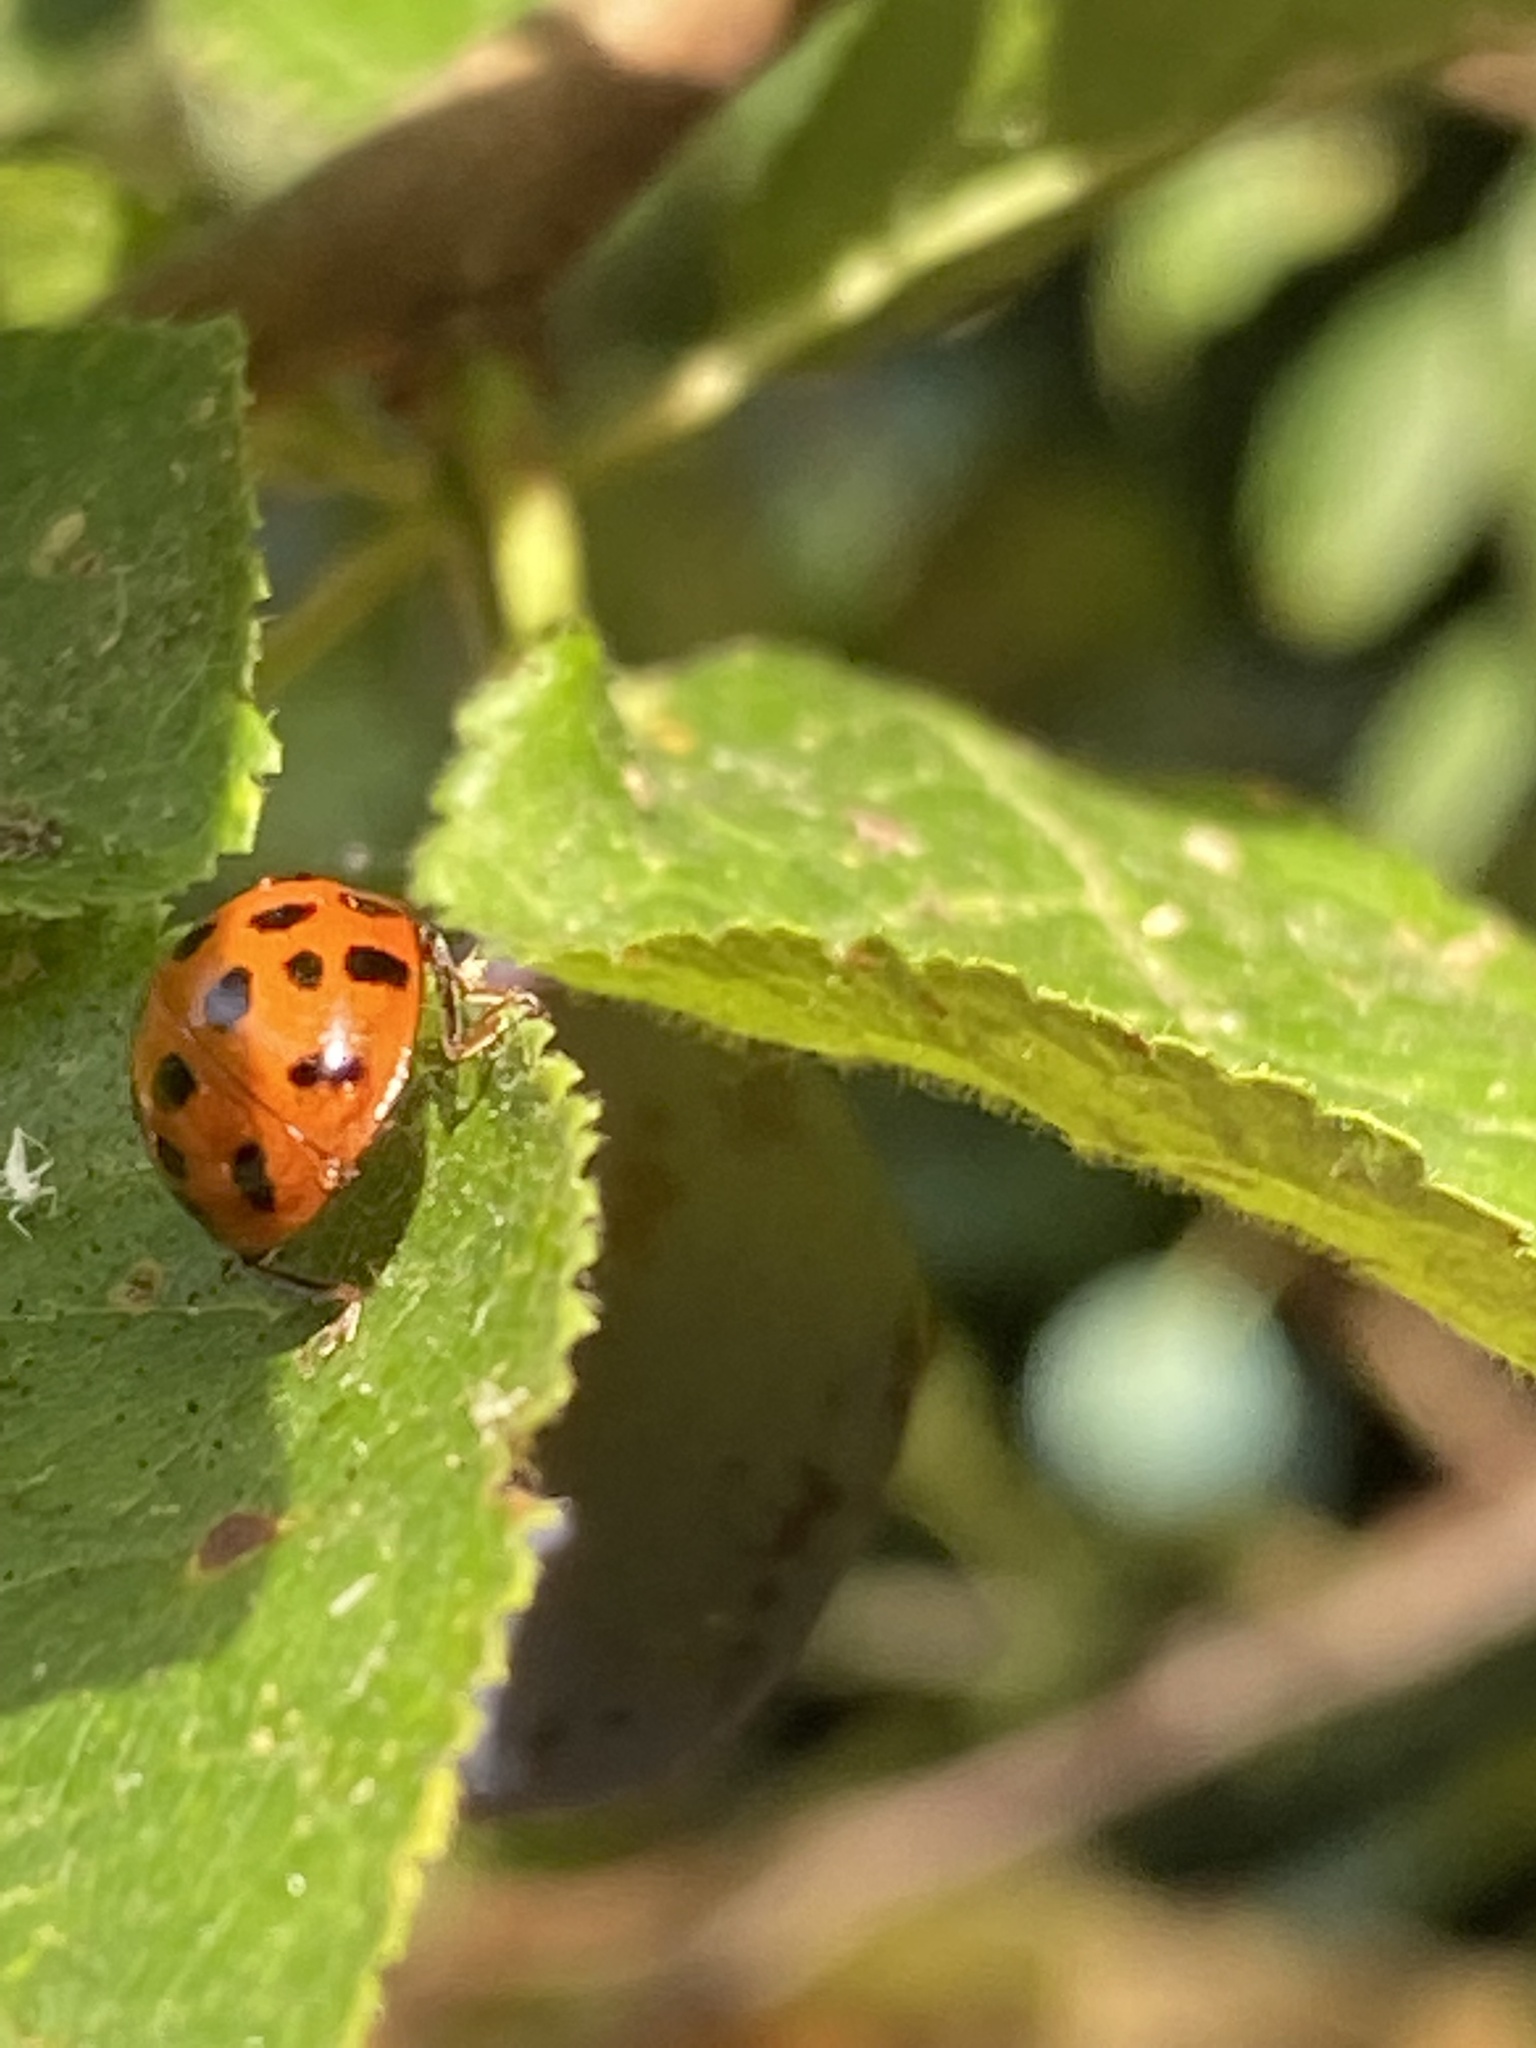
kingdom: Animalia
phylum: Arthropoda
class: Insecta
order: Coleoptera
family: Coccinellidae
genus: Harmonia
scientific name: Harmonia axyridis
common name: Harlequin ladybird
